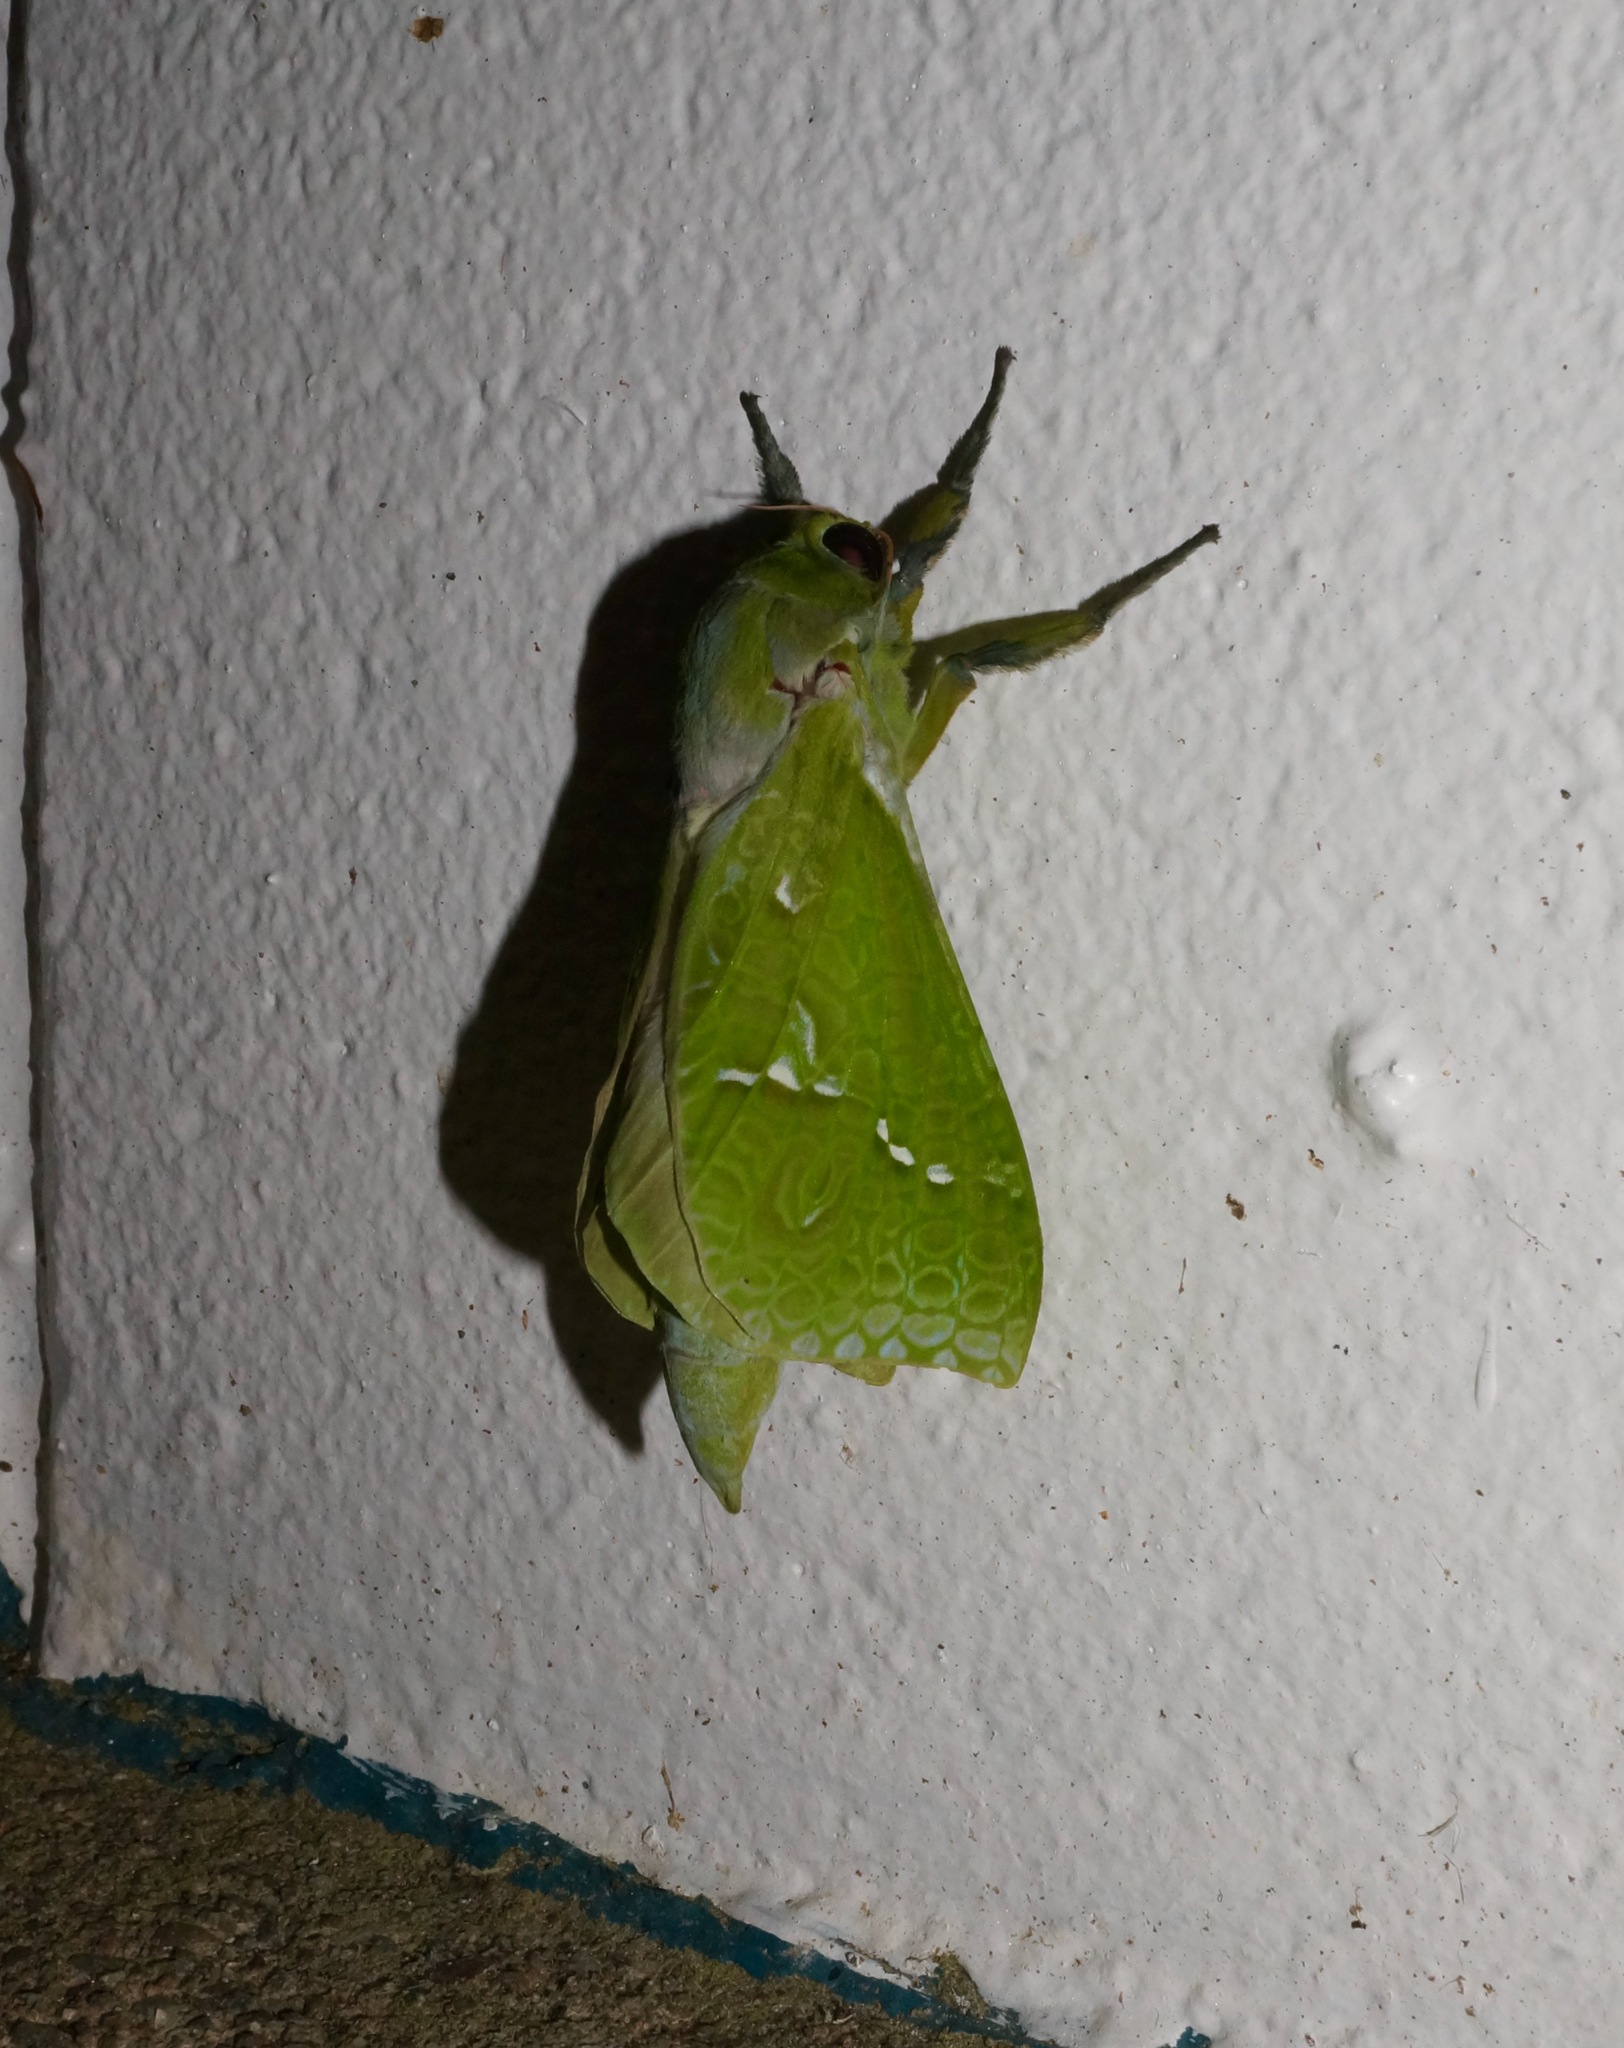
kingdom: Animalia
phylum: Arthropoda
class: Insecta
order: Lepidoptera
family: Hepialidae
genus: Aenetus
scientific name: Aenetus virescens
